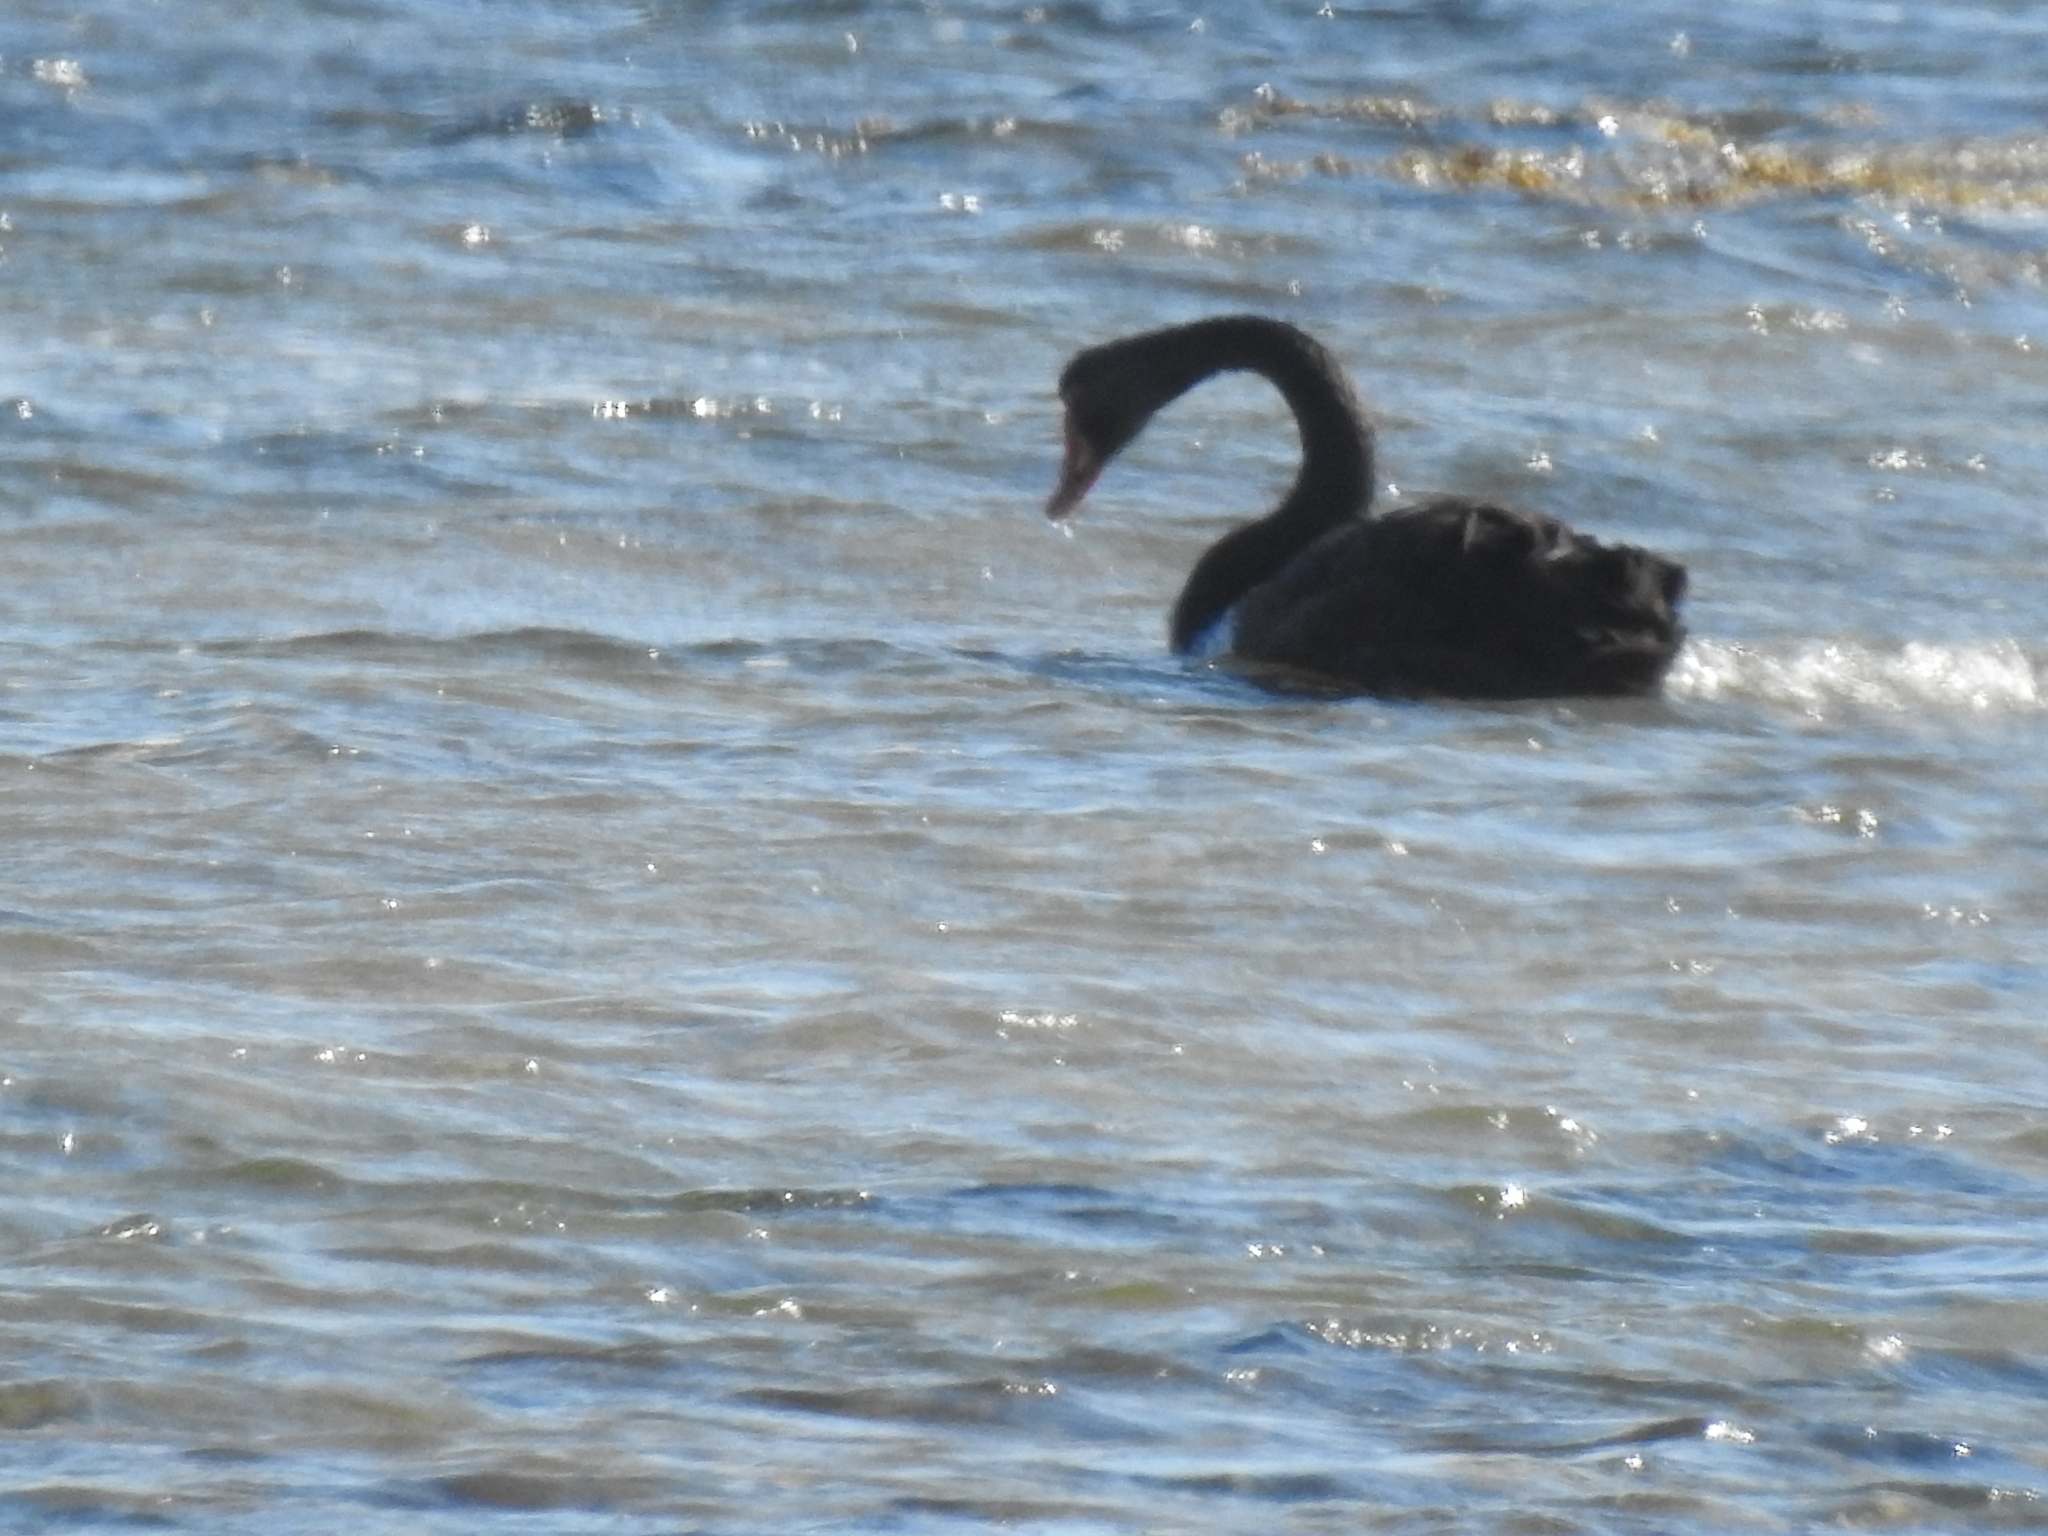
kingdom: Animalia
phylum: Chordata
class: Aves
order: Anseriformes
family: Anatidae
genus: Cygnus
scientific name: Cygnus atratus
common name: Black swan
